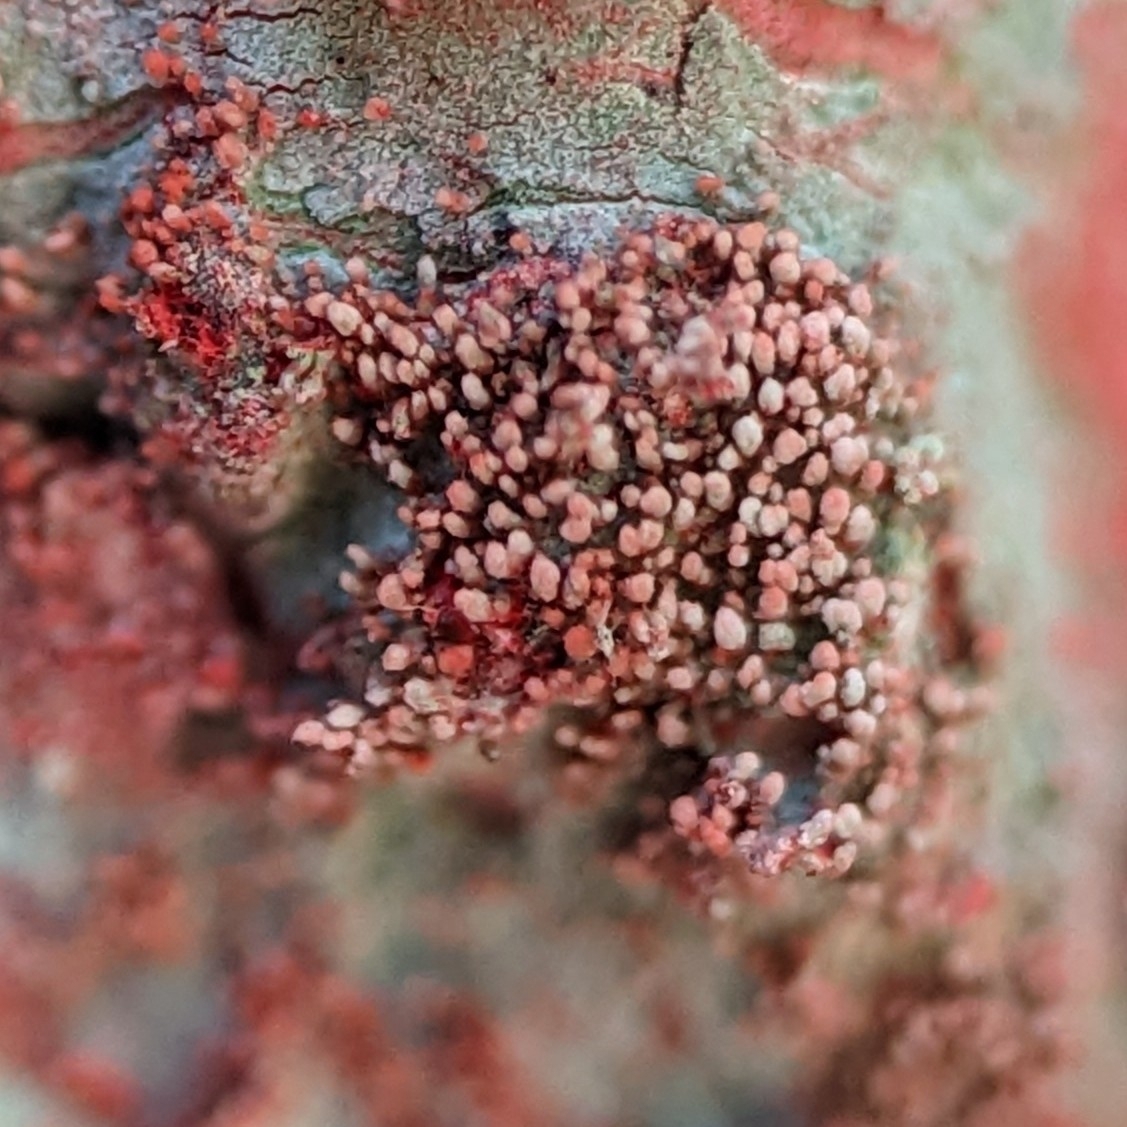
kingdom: Fungi
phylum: Ascomycota
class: Arthoniomycetes
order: Arthoniales
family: Arthoniaceae
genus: Herpothallon
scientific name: Herpothallon rubrocinctum
